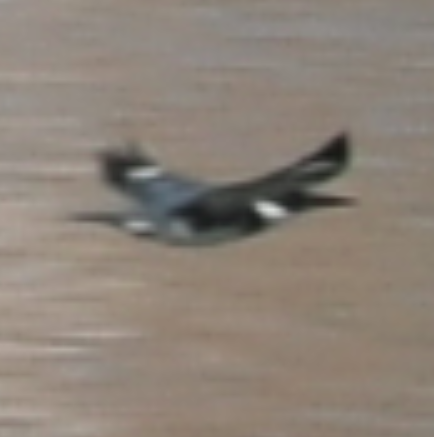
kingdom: Animalia
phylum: Chordata
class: Aves
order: Coraciiformes
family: Alcedinidae
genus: Megaceryle
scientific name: Megaceryle alcyon
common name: Belted kingfisher
